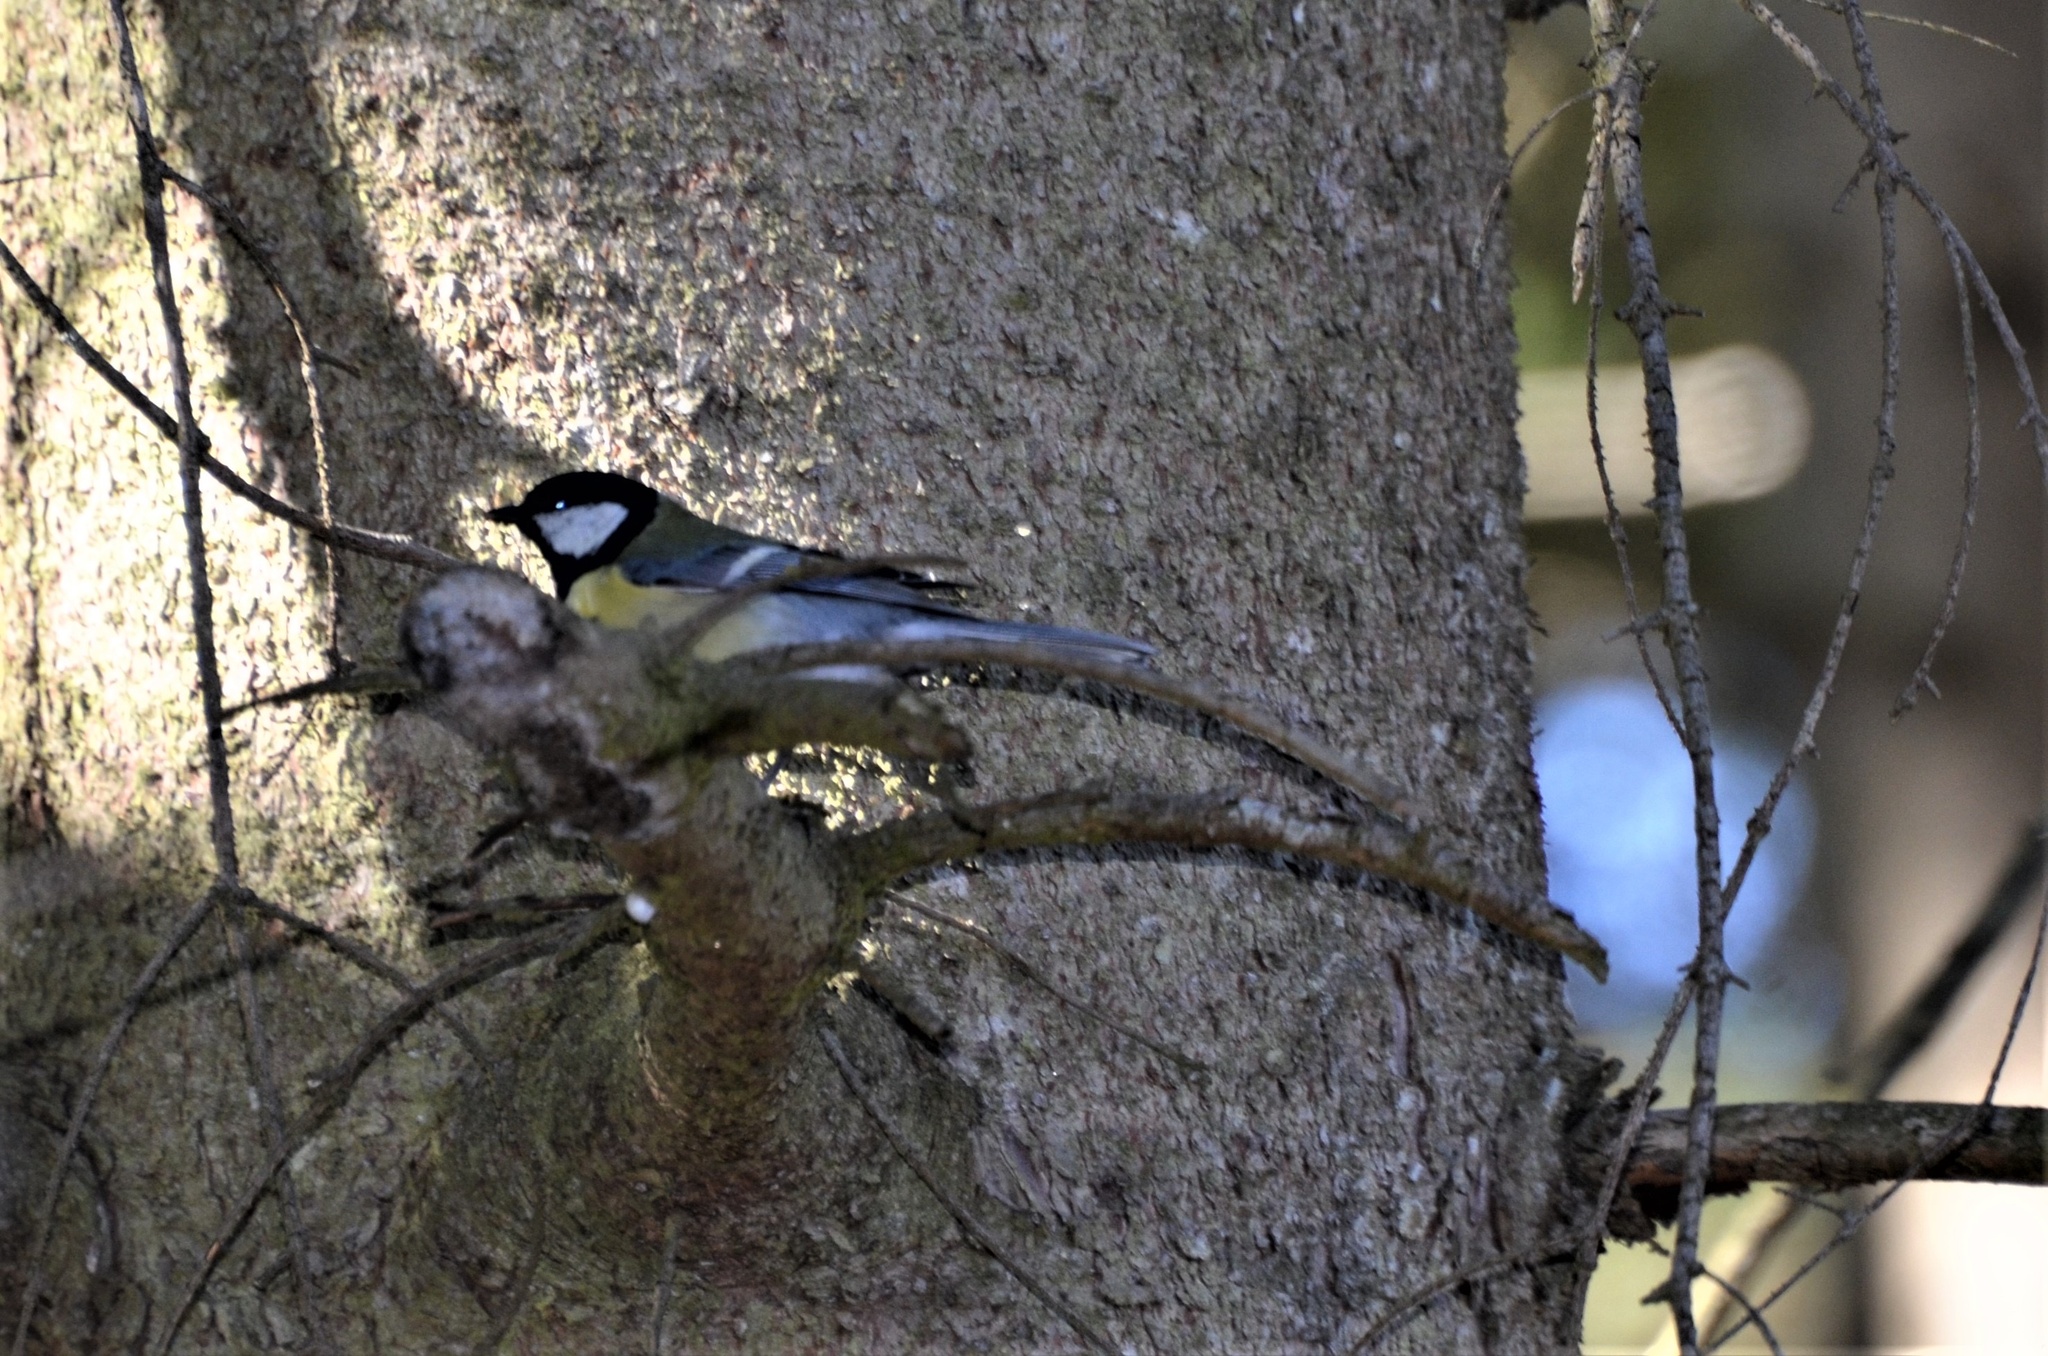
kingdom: Animalia
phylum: Chordata
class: Aves
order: Passeriformes
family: Paridae
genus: Parus
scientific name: Parus major
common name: Great tit
